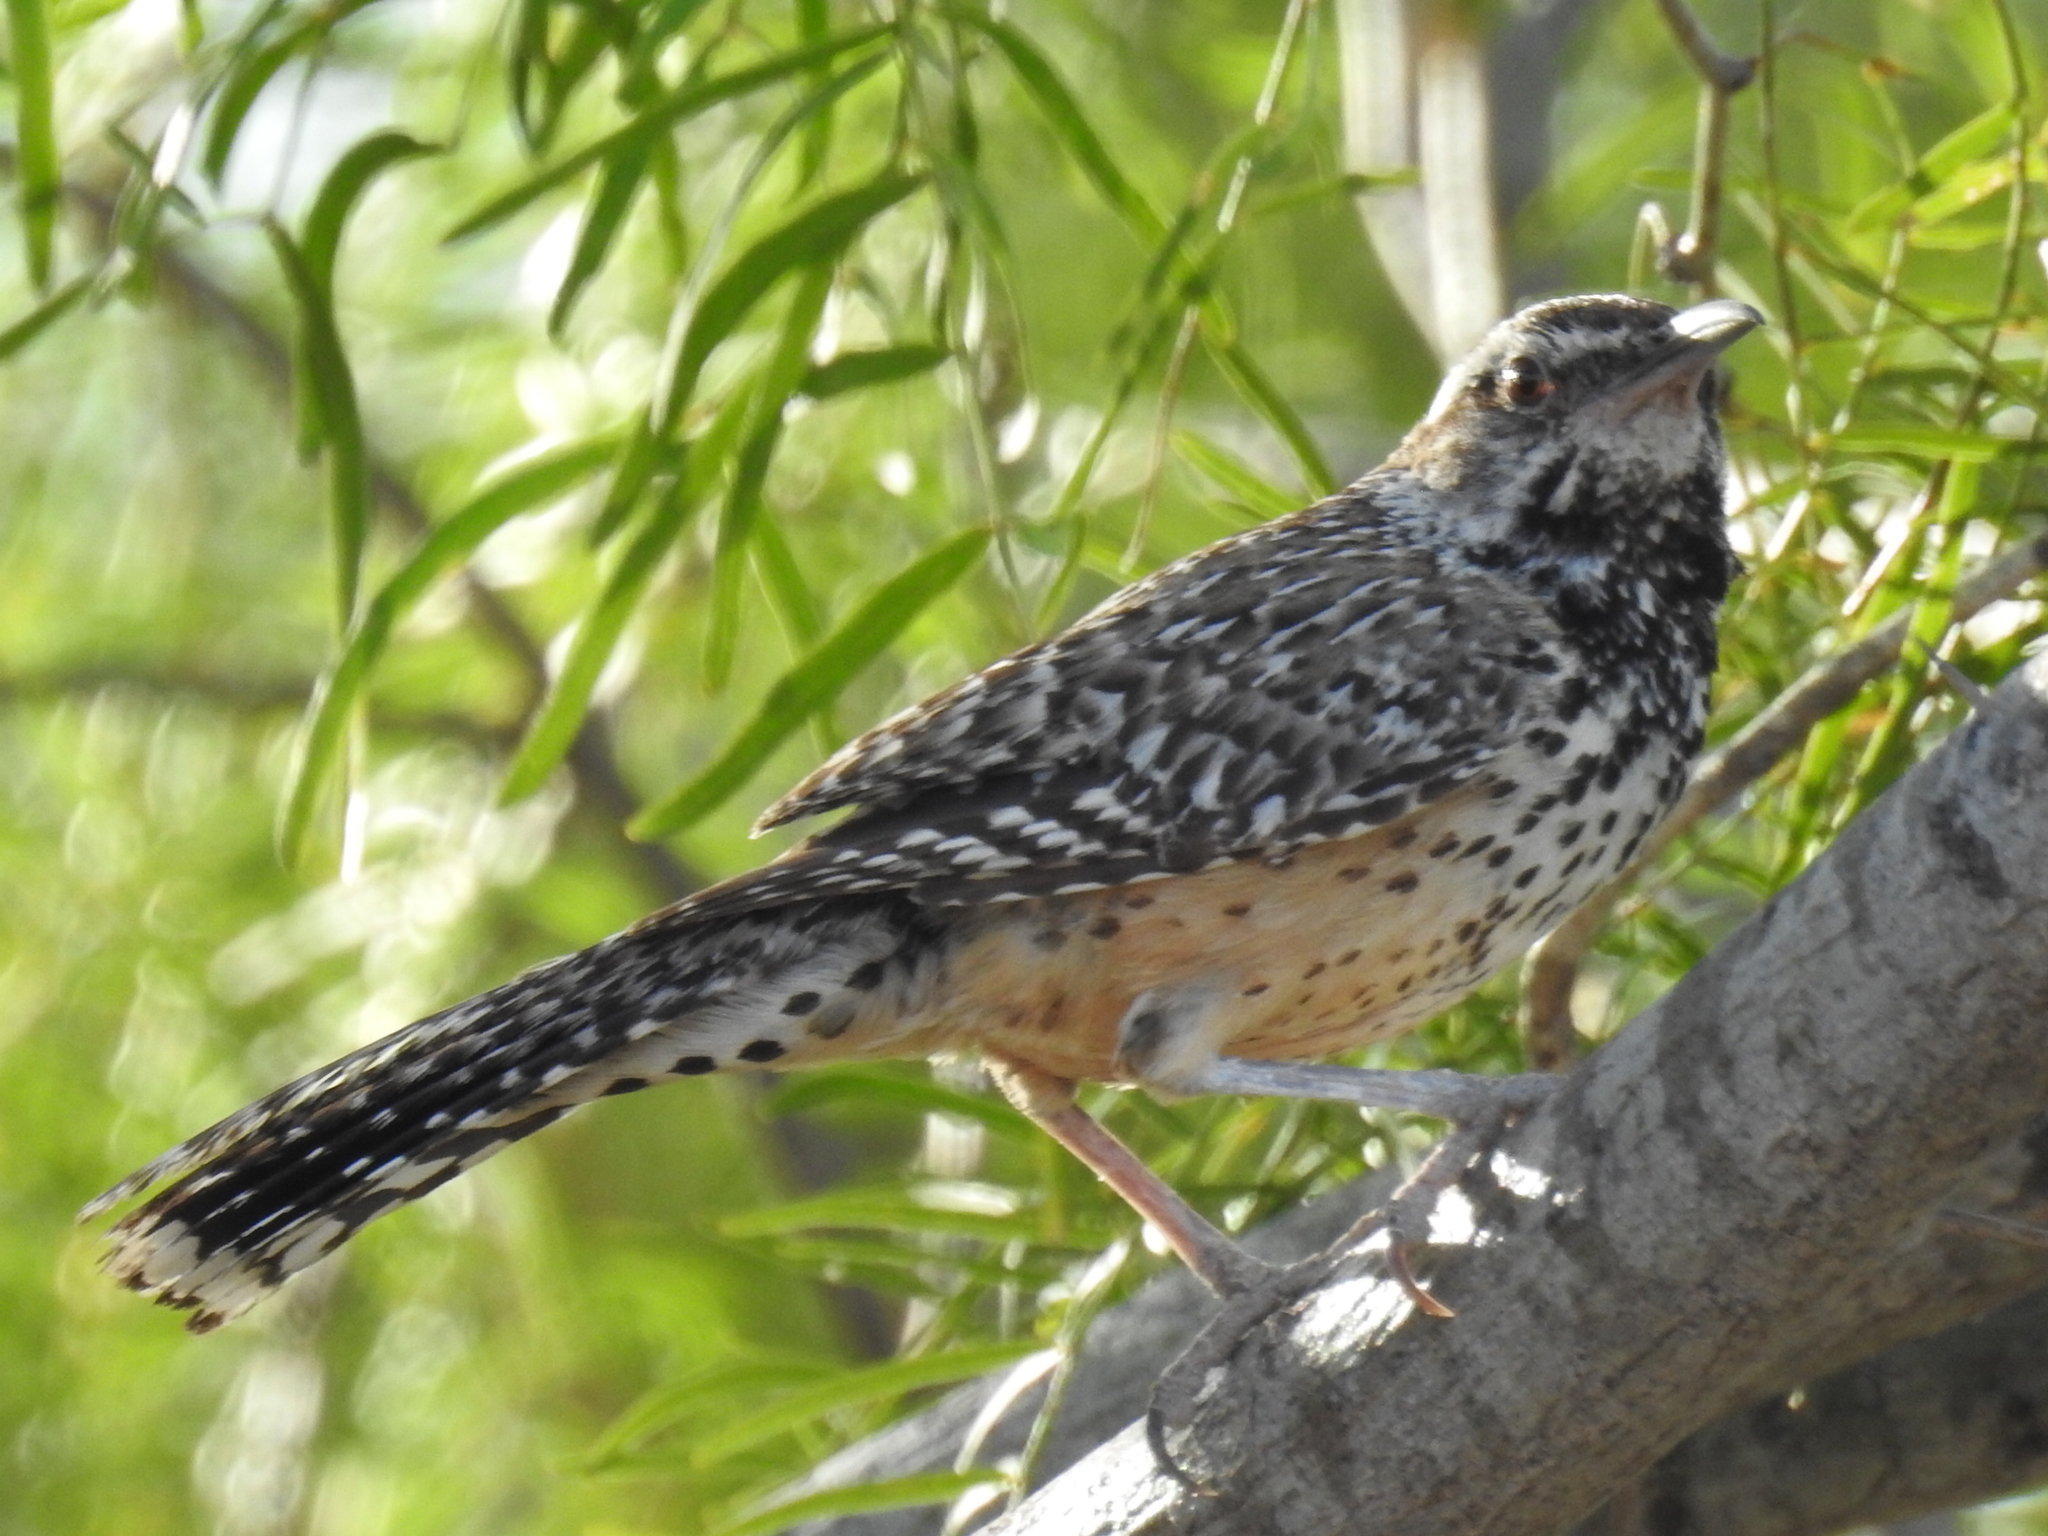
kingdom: Animalia
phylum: Chordata
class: Aves
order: Passeriformes
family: Troglodytidae
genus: Campylorhynchus
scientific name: Campylorhynchus brunneicapillus
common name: Cactus wren
